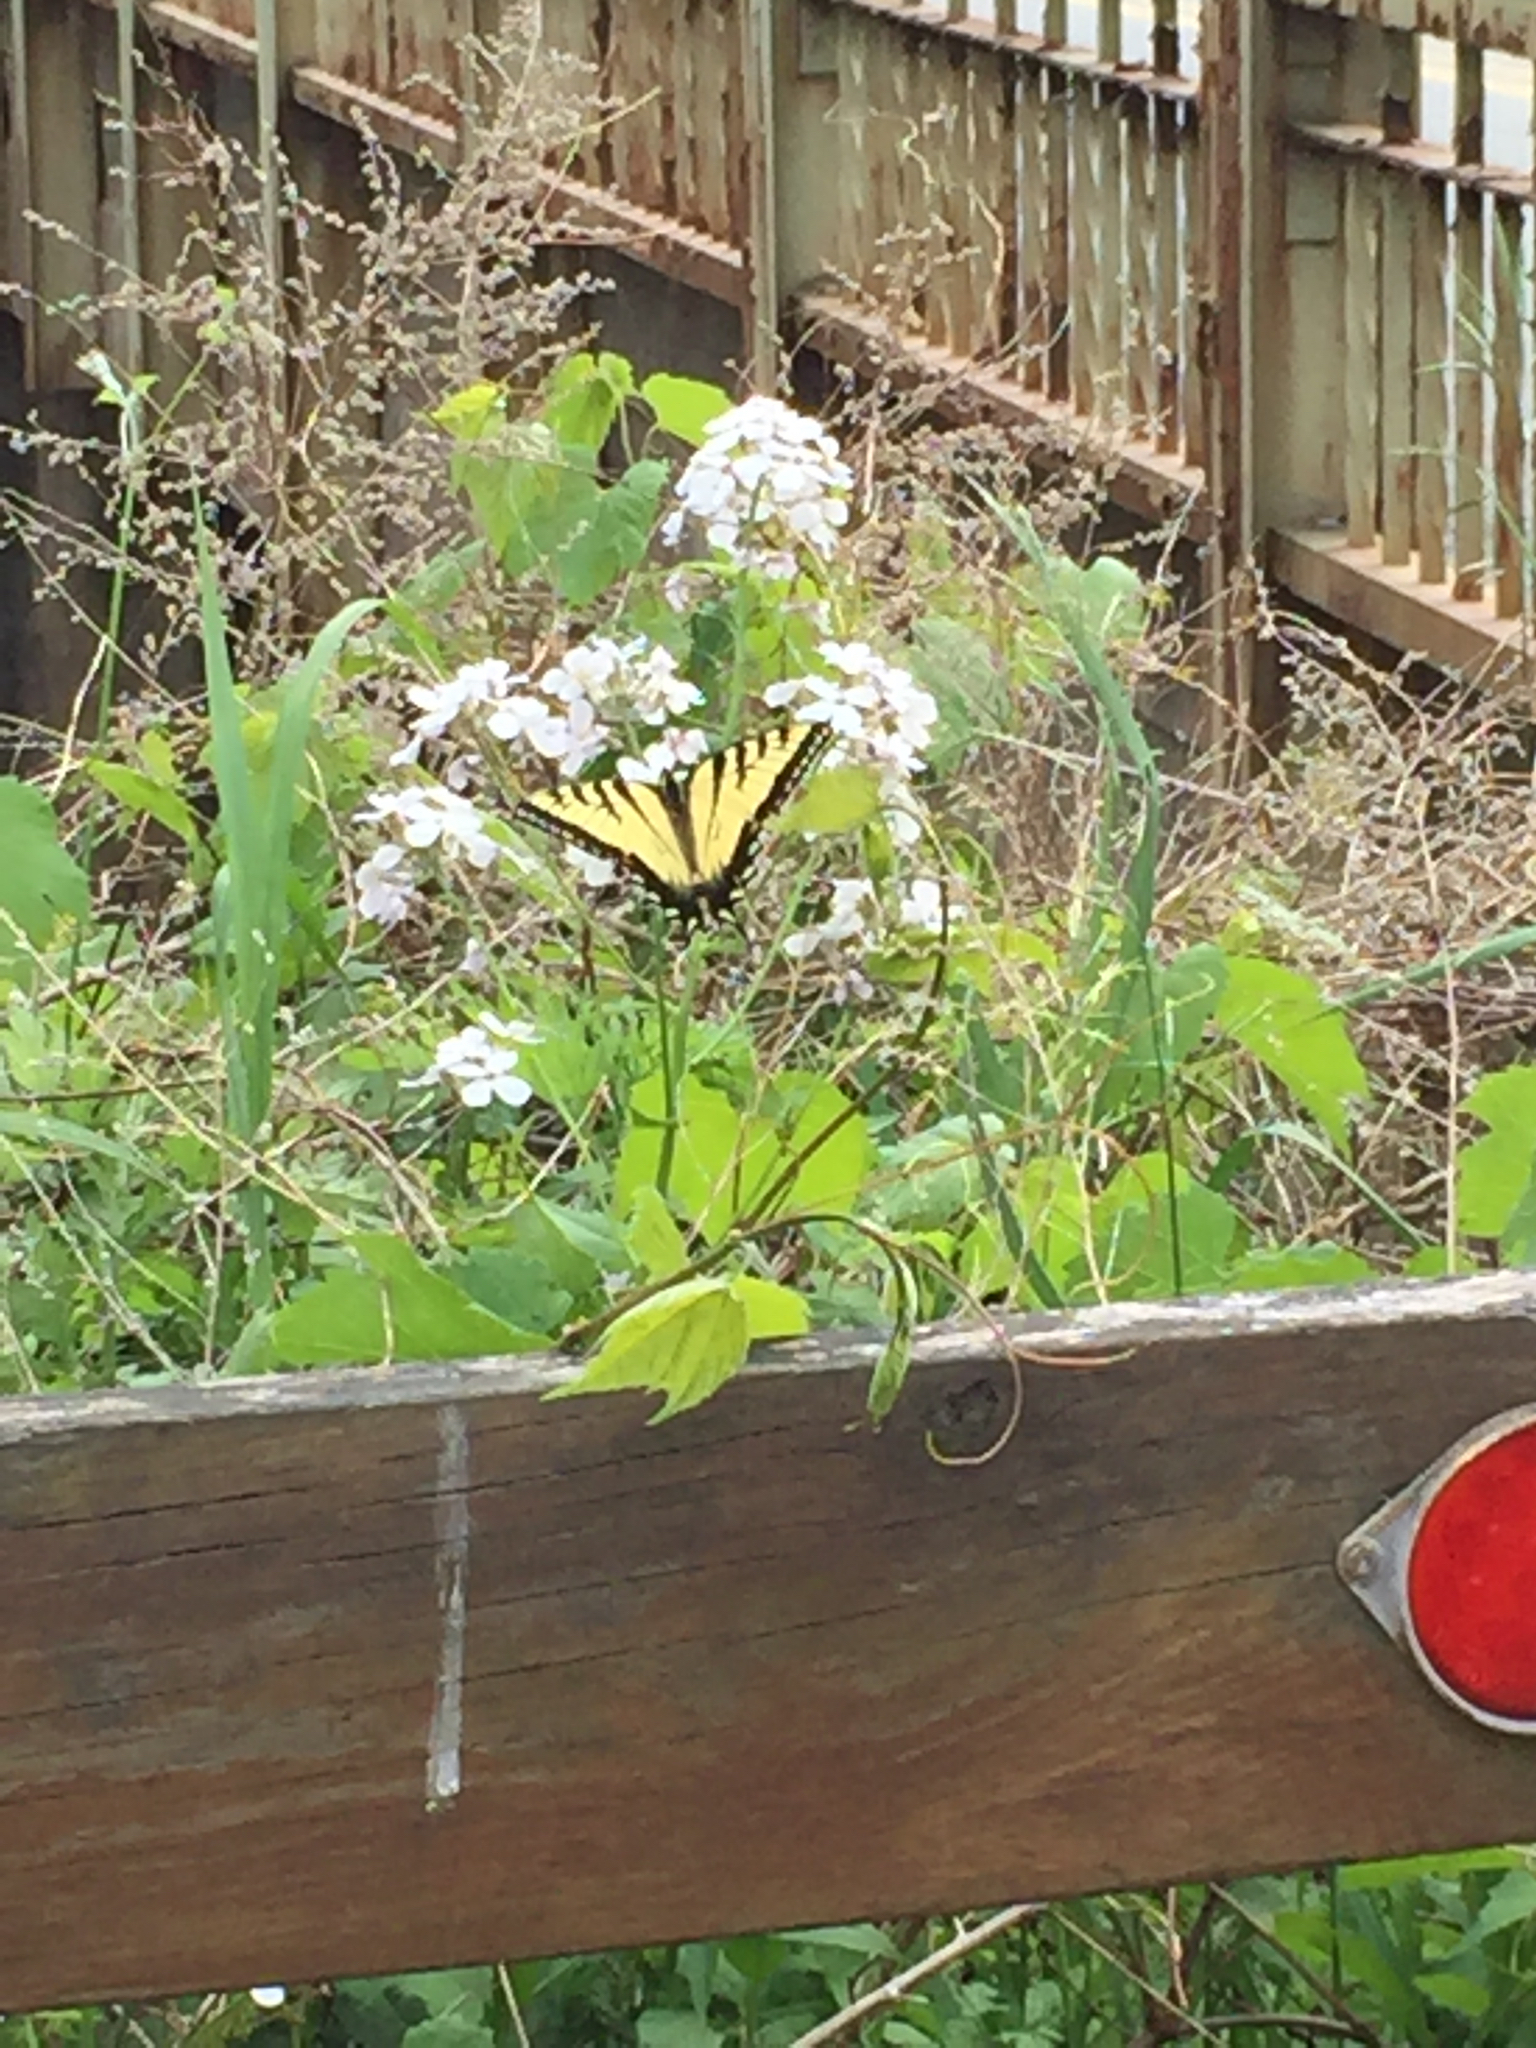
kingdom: Animalia
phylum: Arthropoda
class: Insecta
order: Lepidoptera
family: Papilionidae
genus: Papilio
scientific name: Papilio glaucus
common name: Tiger swallowtail
